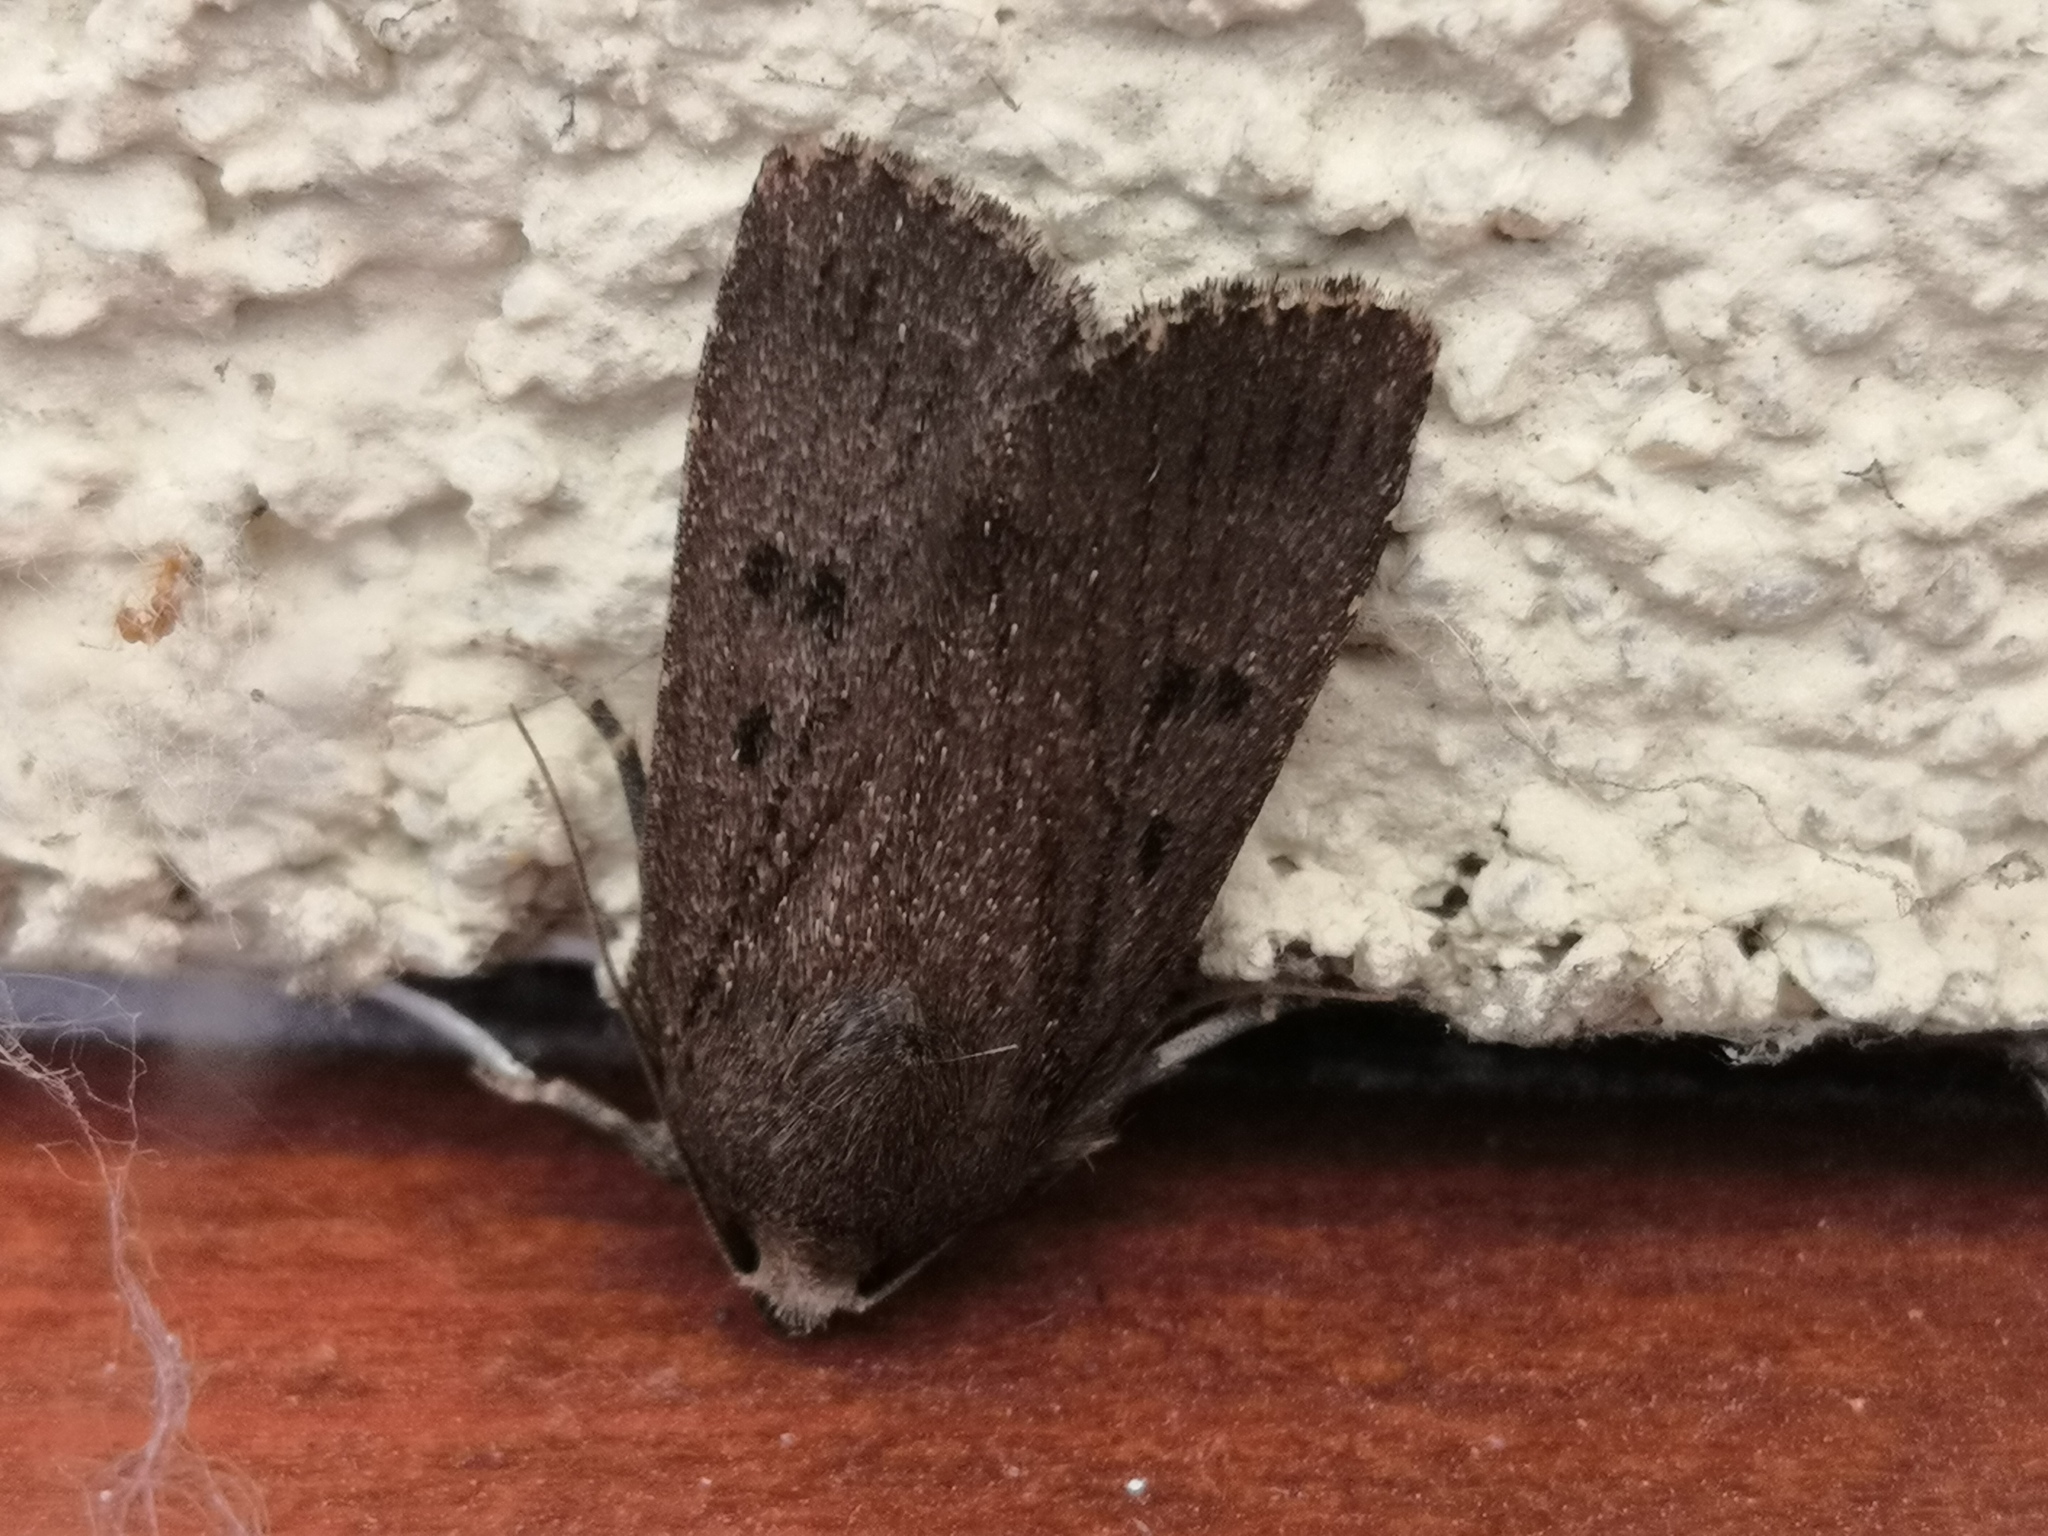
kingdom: Animalia
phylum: Arthropoda
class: Insecta
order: Lepidoptera
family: Noctuidae
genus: Amphipyra
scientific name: Amphipyra tragopoginis
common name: Mouse moth
